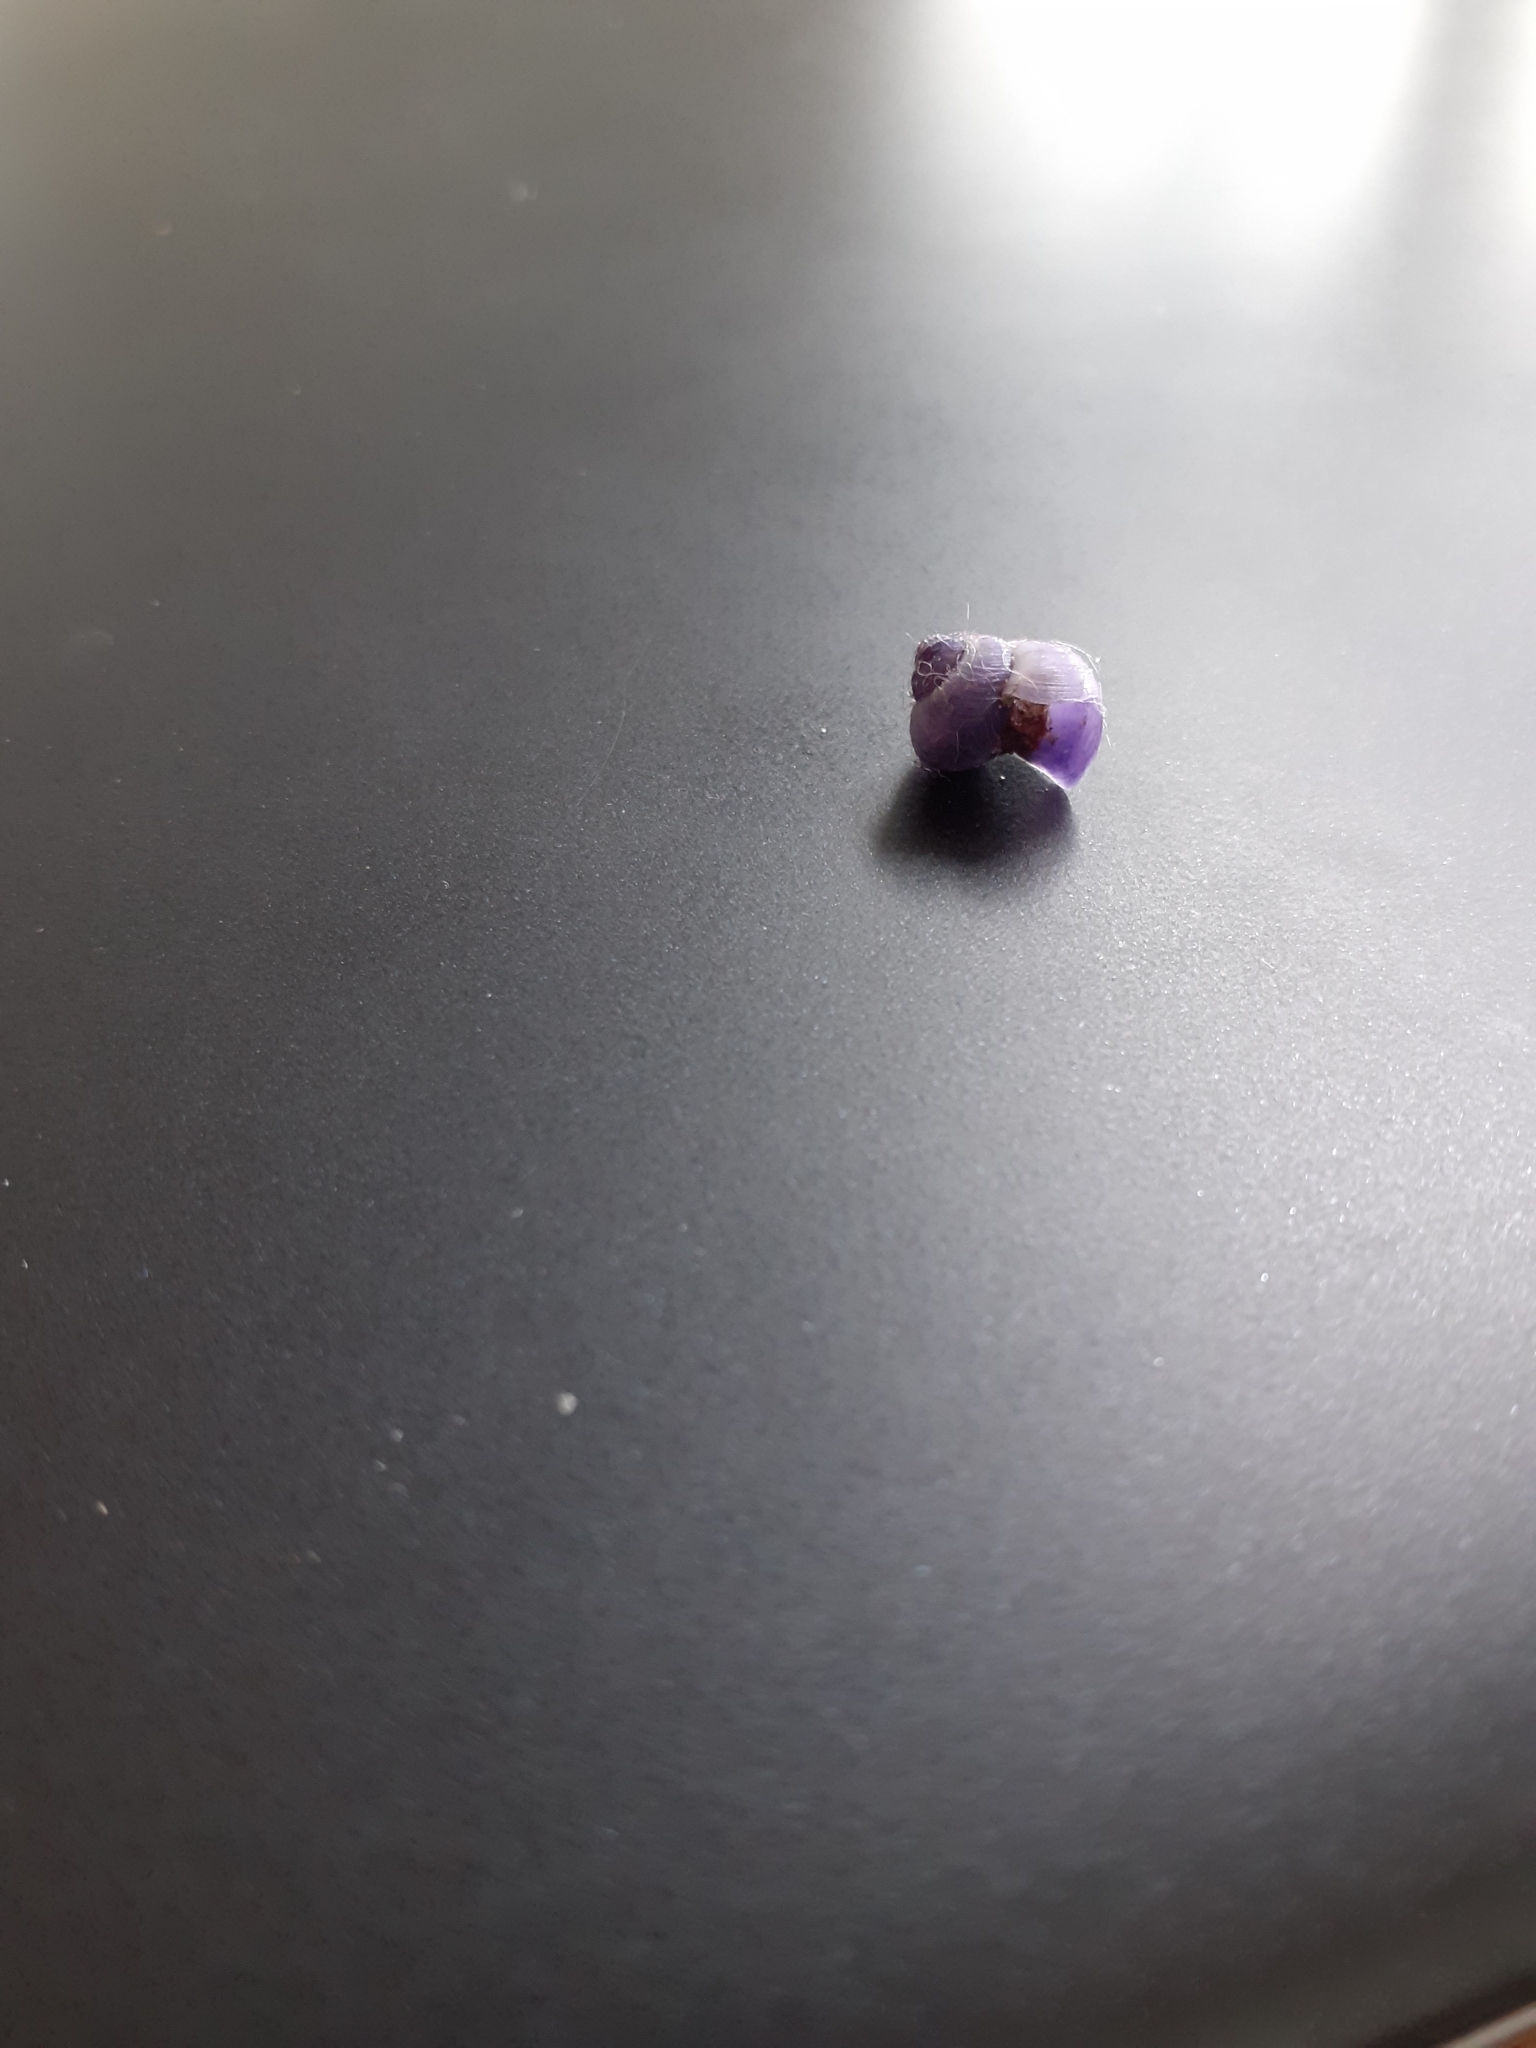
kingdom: Animalia
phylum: Mollusca
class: Gastropoda
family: Epitoniidae
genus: Janthina
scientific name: Janthina exigua
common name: Dwarf janthina
